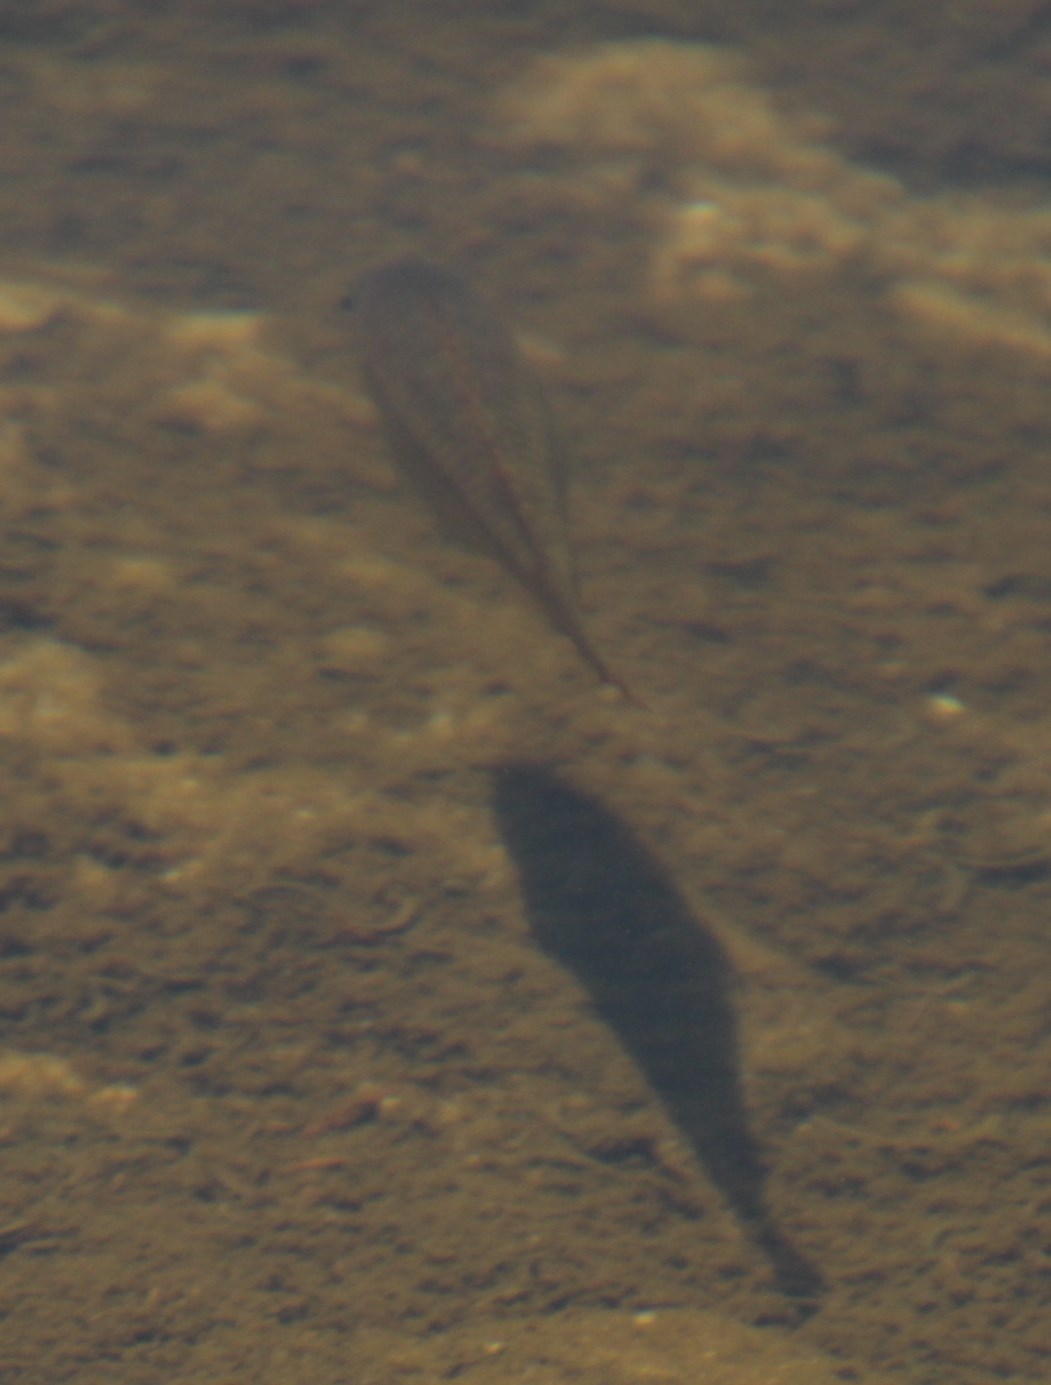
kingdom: Animalia
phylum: Chordata
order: Perciformes
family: Cichlidae
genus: Tilapia
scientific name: Tilapia sparrmanii
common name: Banded tilapia
